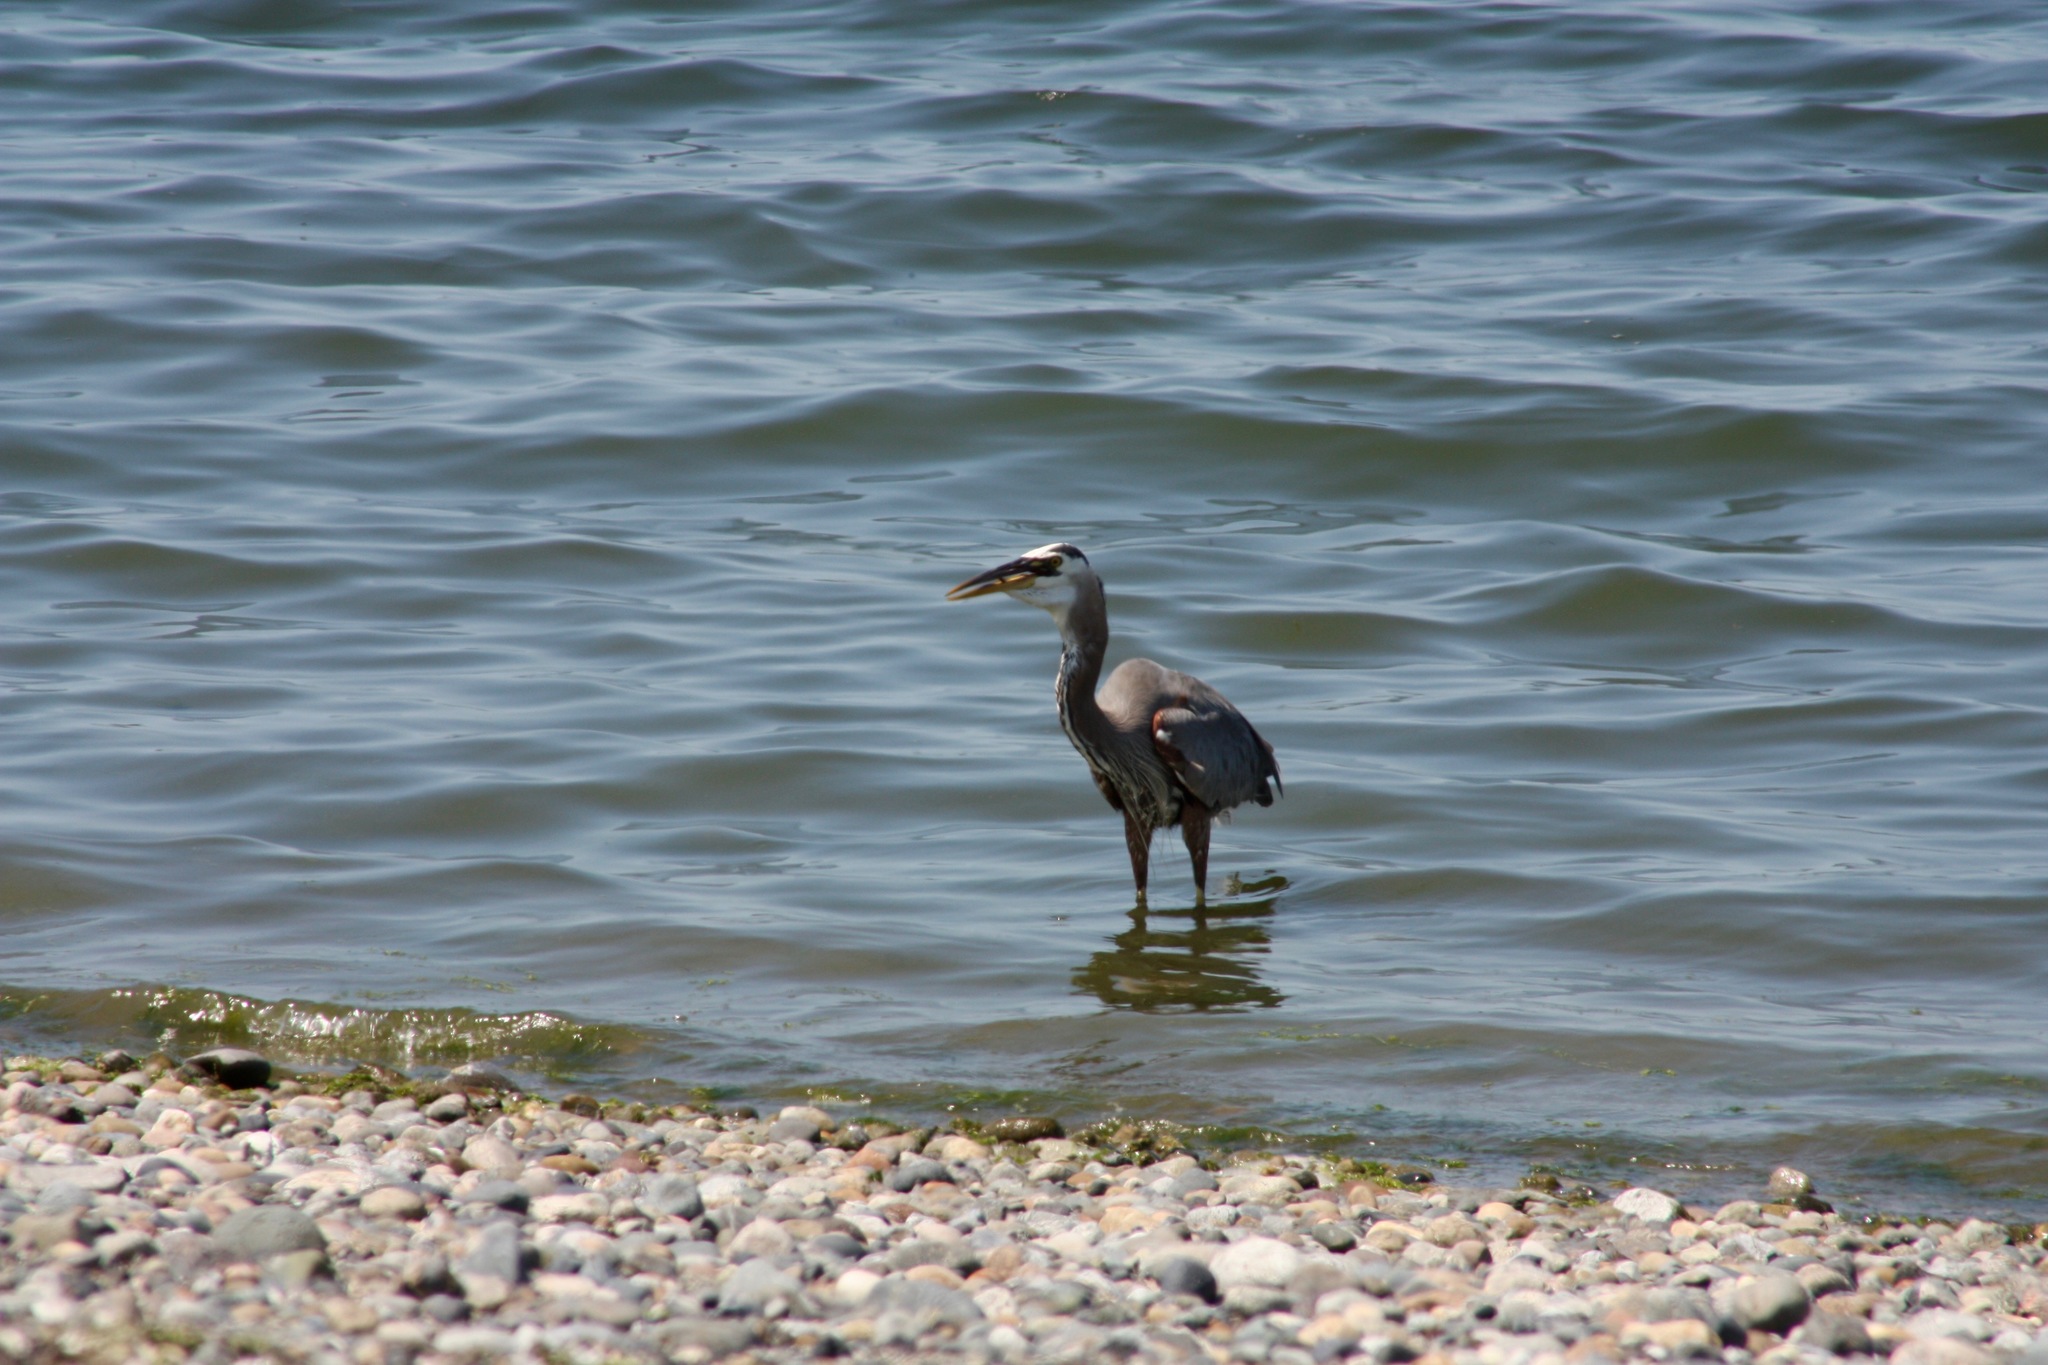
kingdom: Animalia
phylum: Chordata
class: Aves
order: Pelecaniformes
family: Ardeidae
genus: Ardea
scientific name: Ardea herodias
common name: Great blue heron
